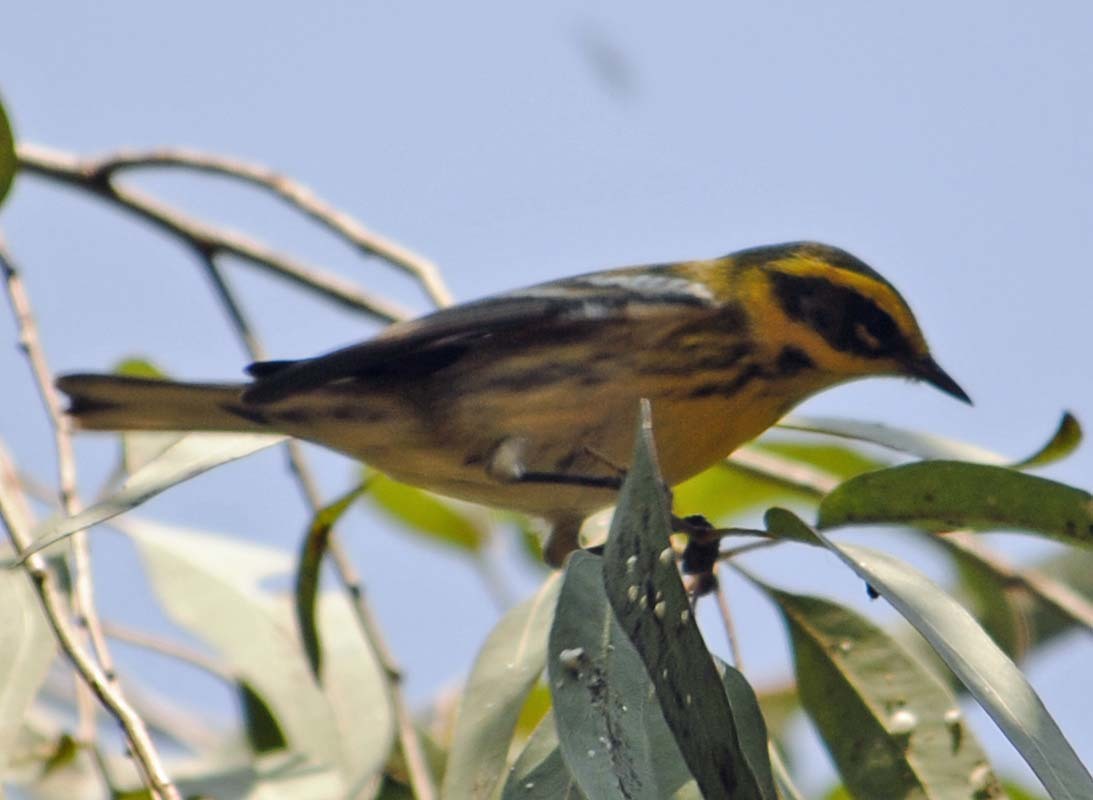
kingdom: Animalia
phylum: Chordata
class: Aves
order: Passeriformes
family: Parulidae
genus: Setophaga
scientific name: Setophaga townsendi
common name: Townsend's warbler
